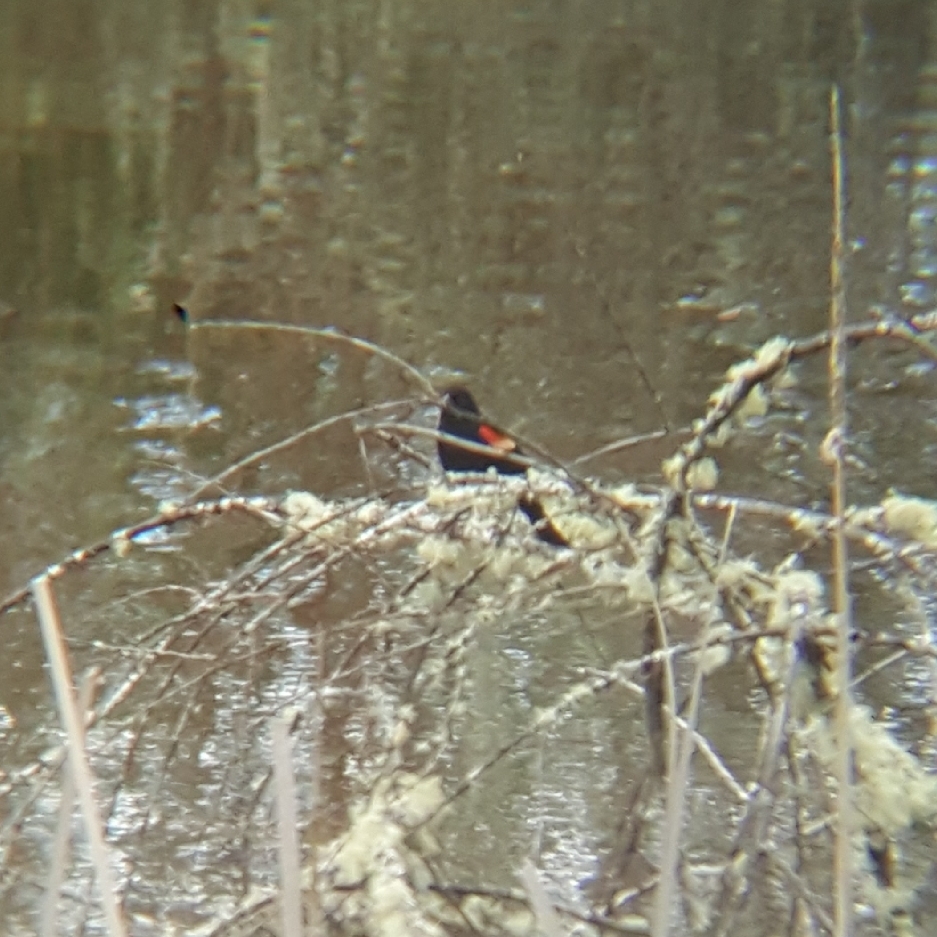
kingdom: Animalia
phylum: Chordata
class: Aves
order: Passeriformes
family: Icteridae
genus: Agelaius
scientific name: Agelaius phoeniceus
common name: Red-winged blackbird
